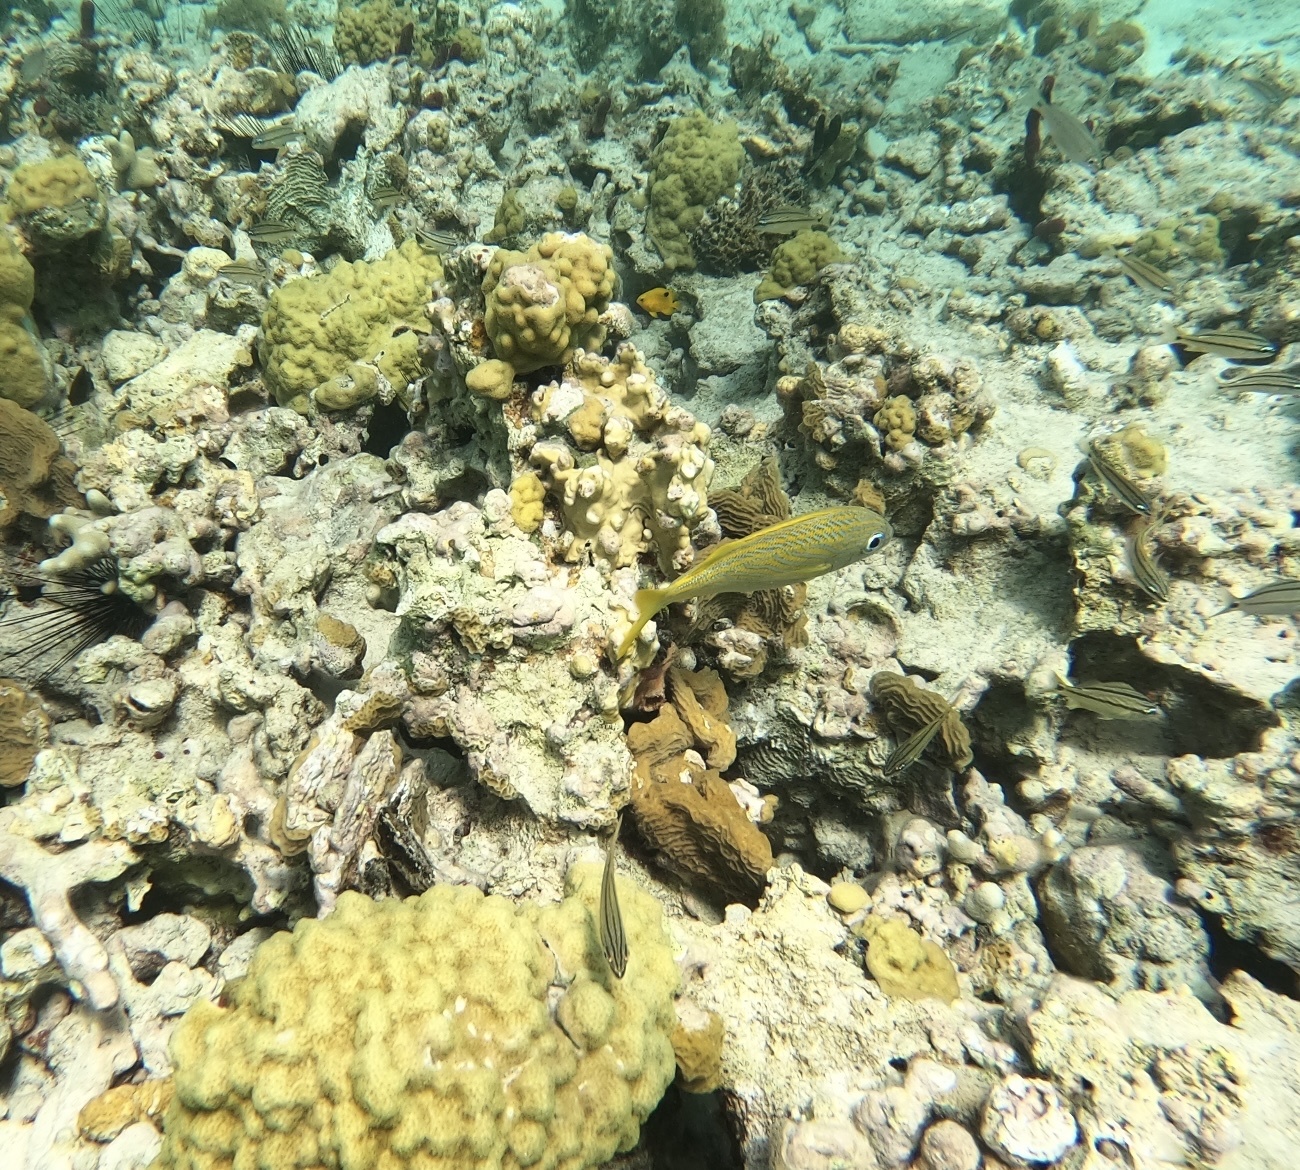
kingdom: Animalia
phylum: Chordata
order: Perciformes
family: Haemulidae
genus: Haemulon
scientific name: Haemulon flavolineatum
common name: French grunt
